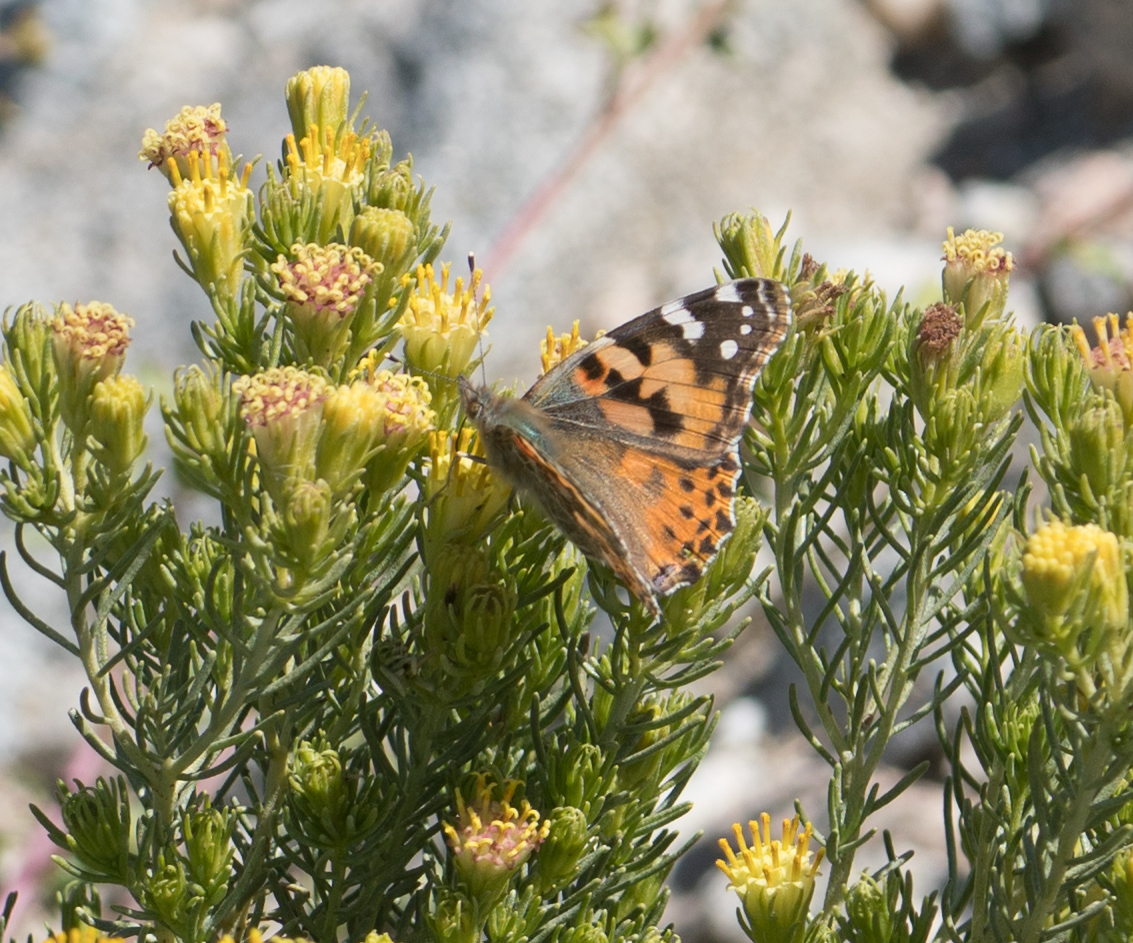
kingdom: Animalia
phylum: Arthropoda
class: Insecta
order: Lepidoptera
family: Nymphalidae
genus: Vanessa
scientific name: Vanessa cardui
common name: Painted lady
